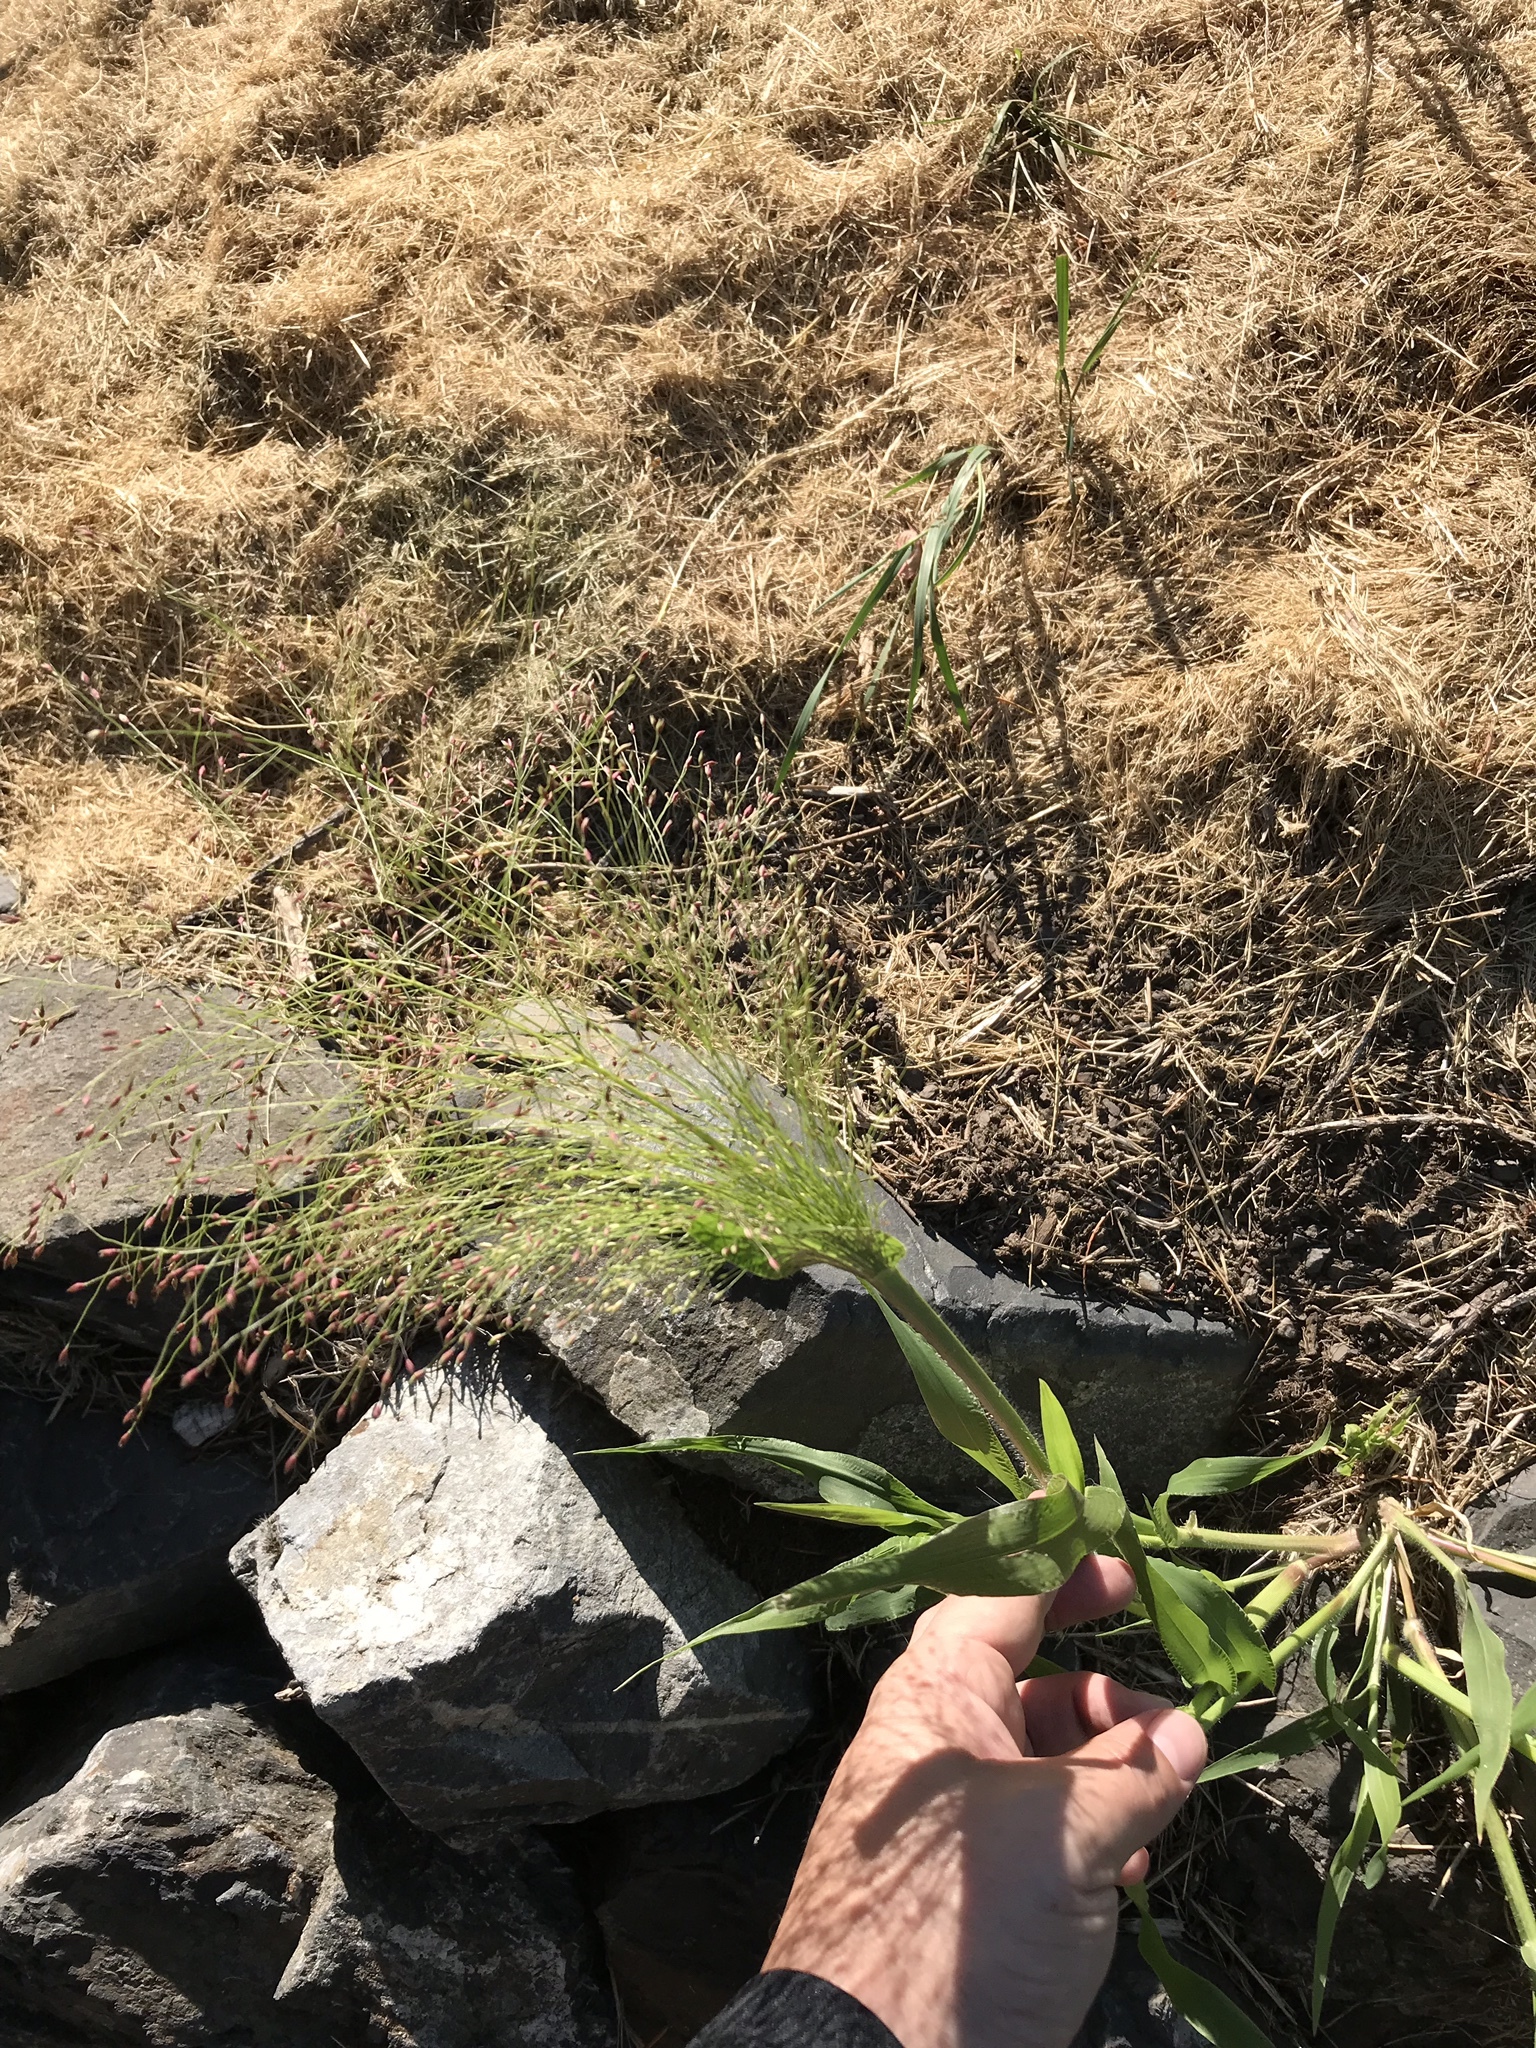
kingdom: Plantae
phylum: Tracheophyta
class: Liliopsida
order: Poales
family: Poaceae
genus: Panicum
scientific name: Panicum capillare
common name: Witch-grass
